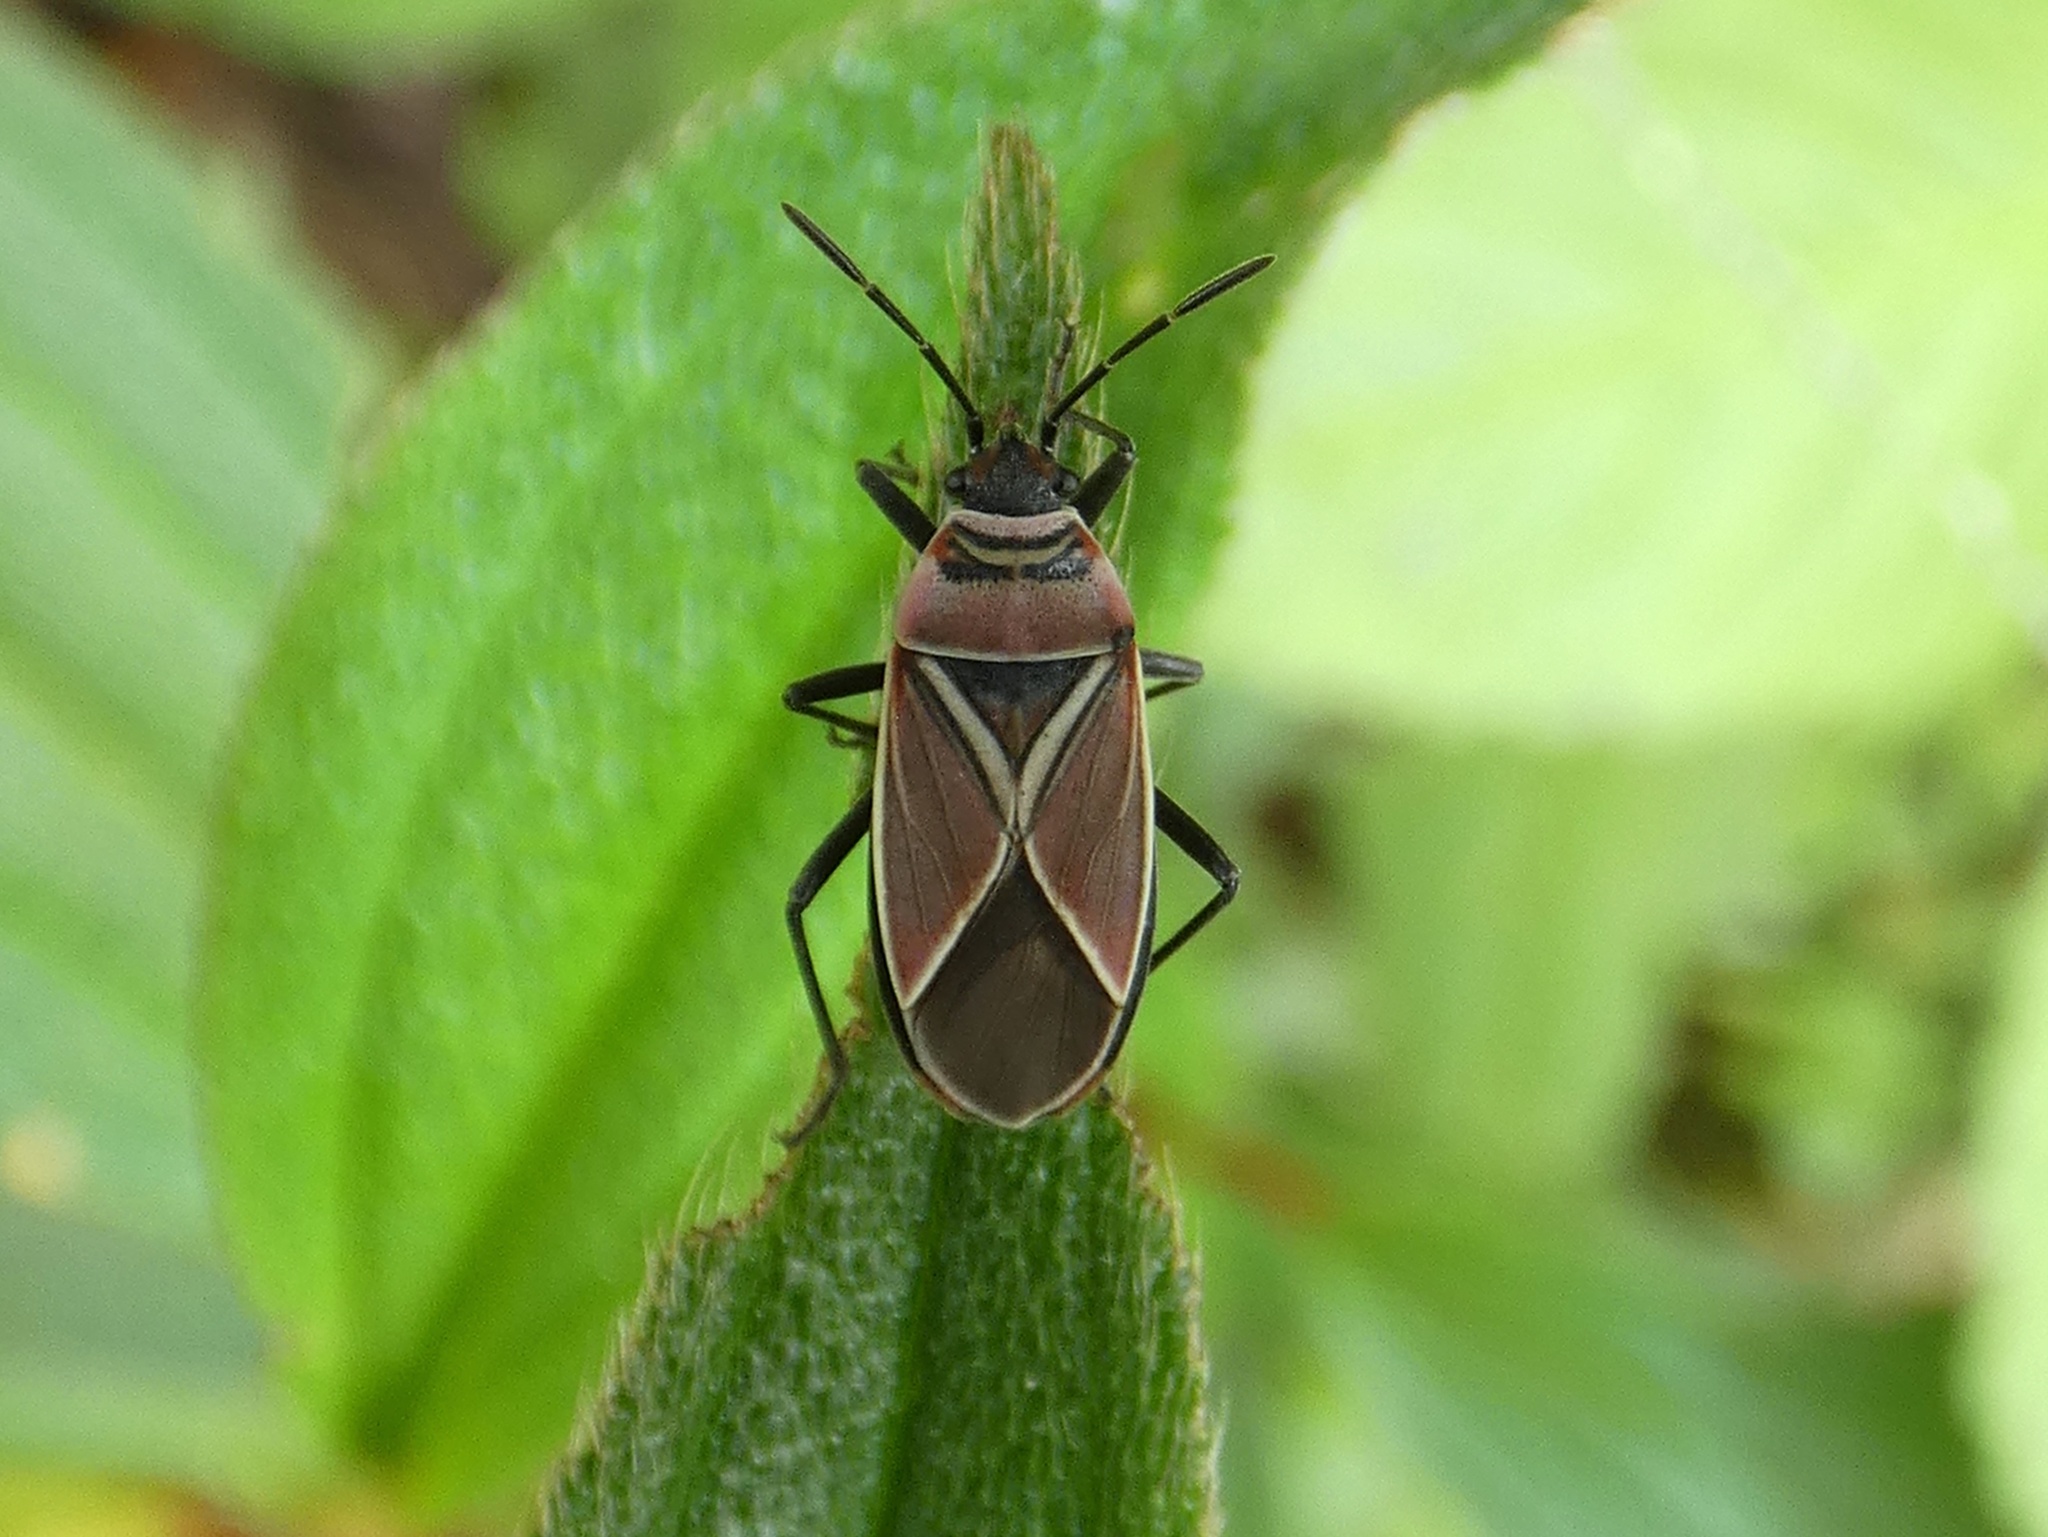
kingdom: Animalia
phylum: Arthropoda
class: Insecta
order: Hemiptera
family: Lygaeidae
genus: Neacoryphus
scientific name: Neacoryphus bicrucis
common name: Lygaeid bug
